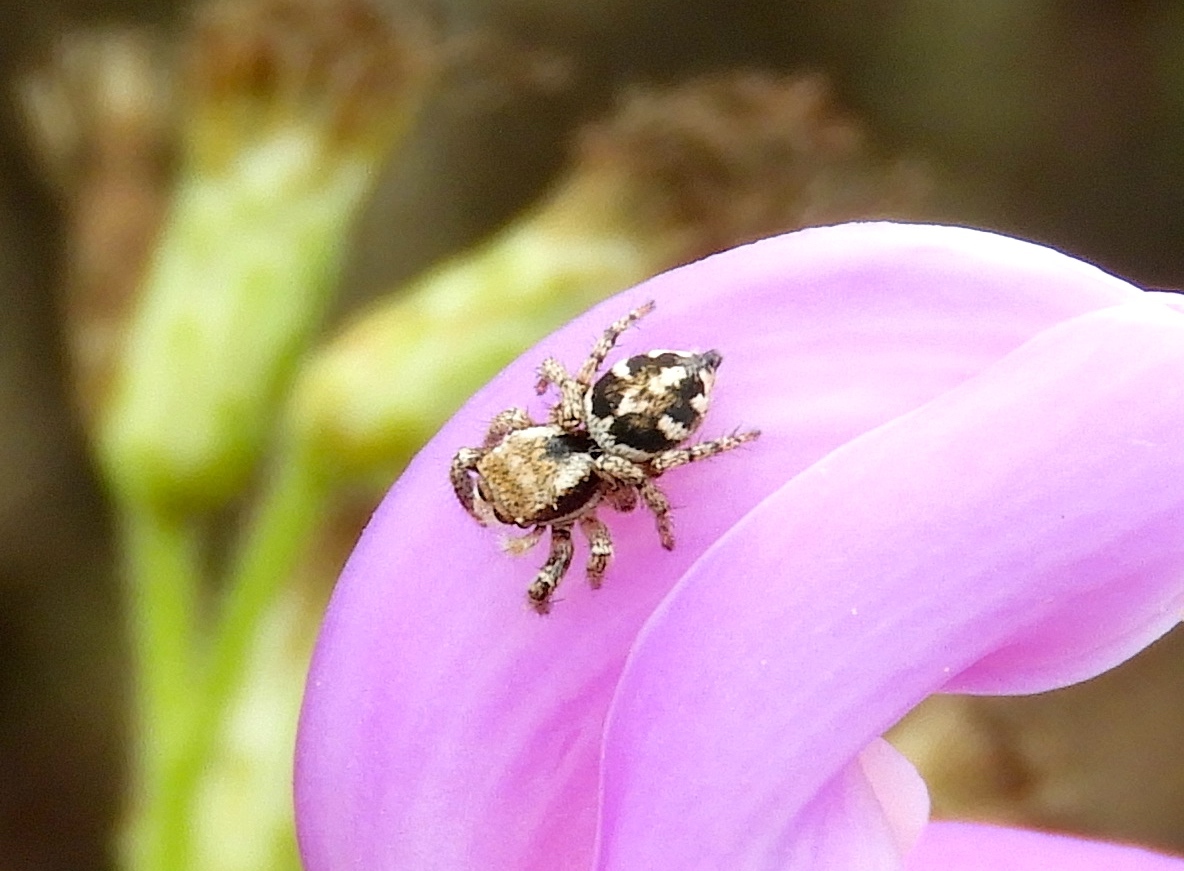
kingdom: Animalia
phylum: Arthropoda
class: Arachnida
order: Araneae
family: Salticidae
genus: Habronattus
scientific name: Habronattus
